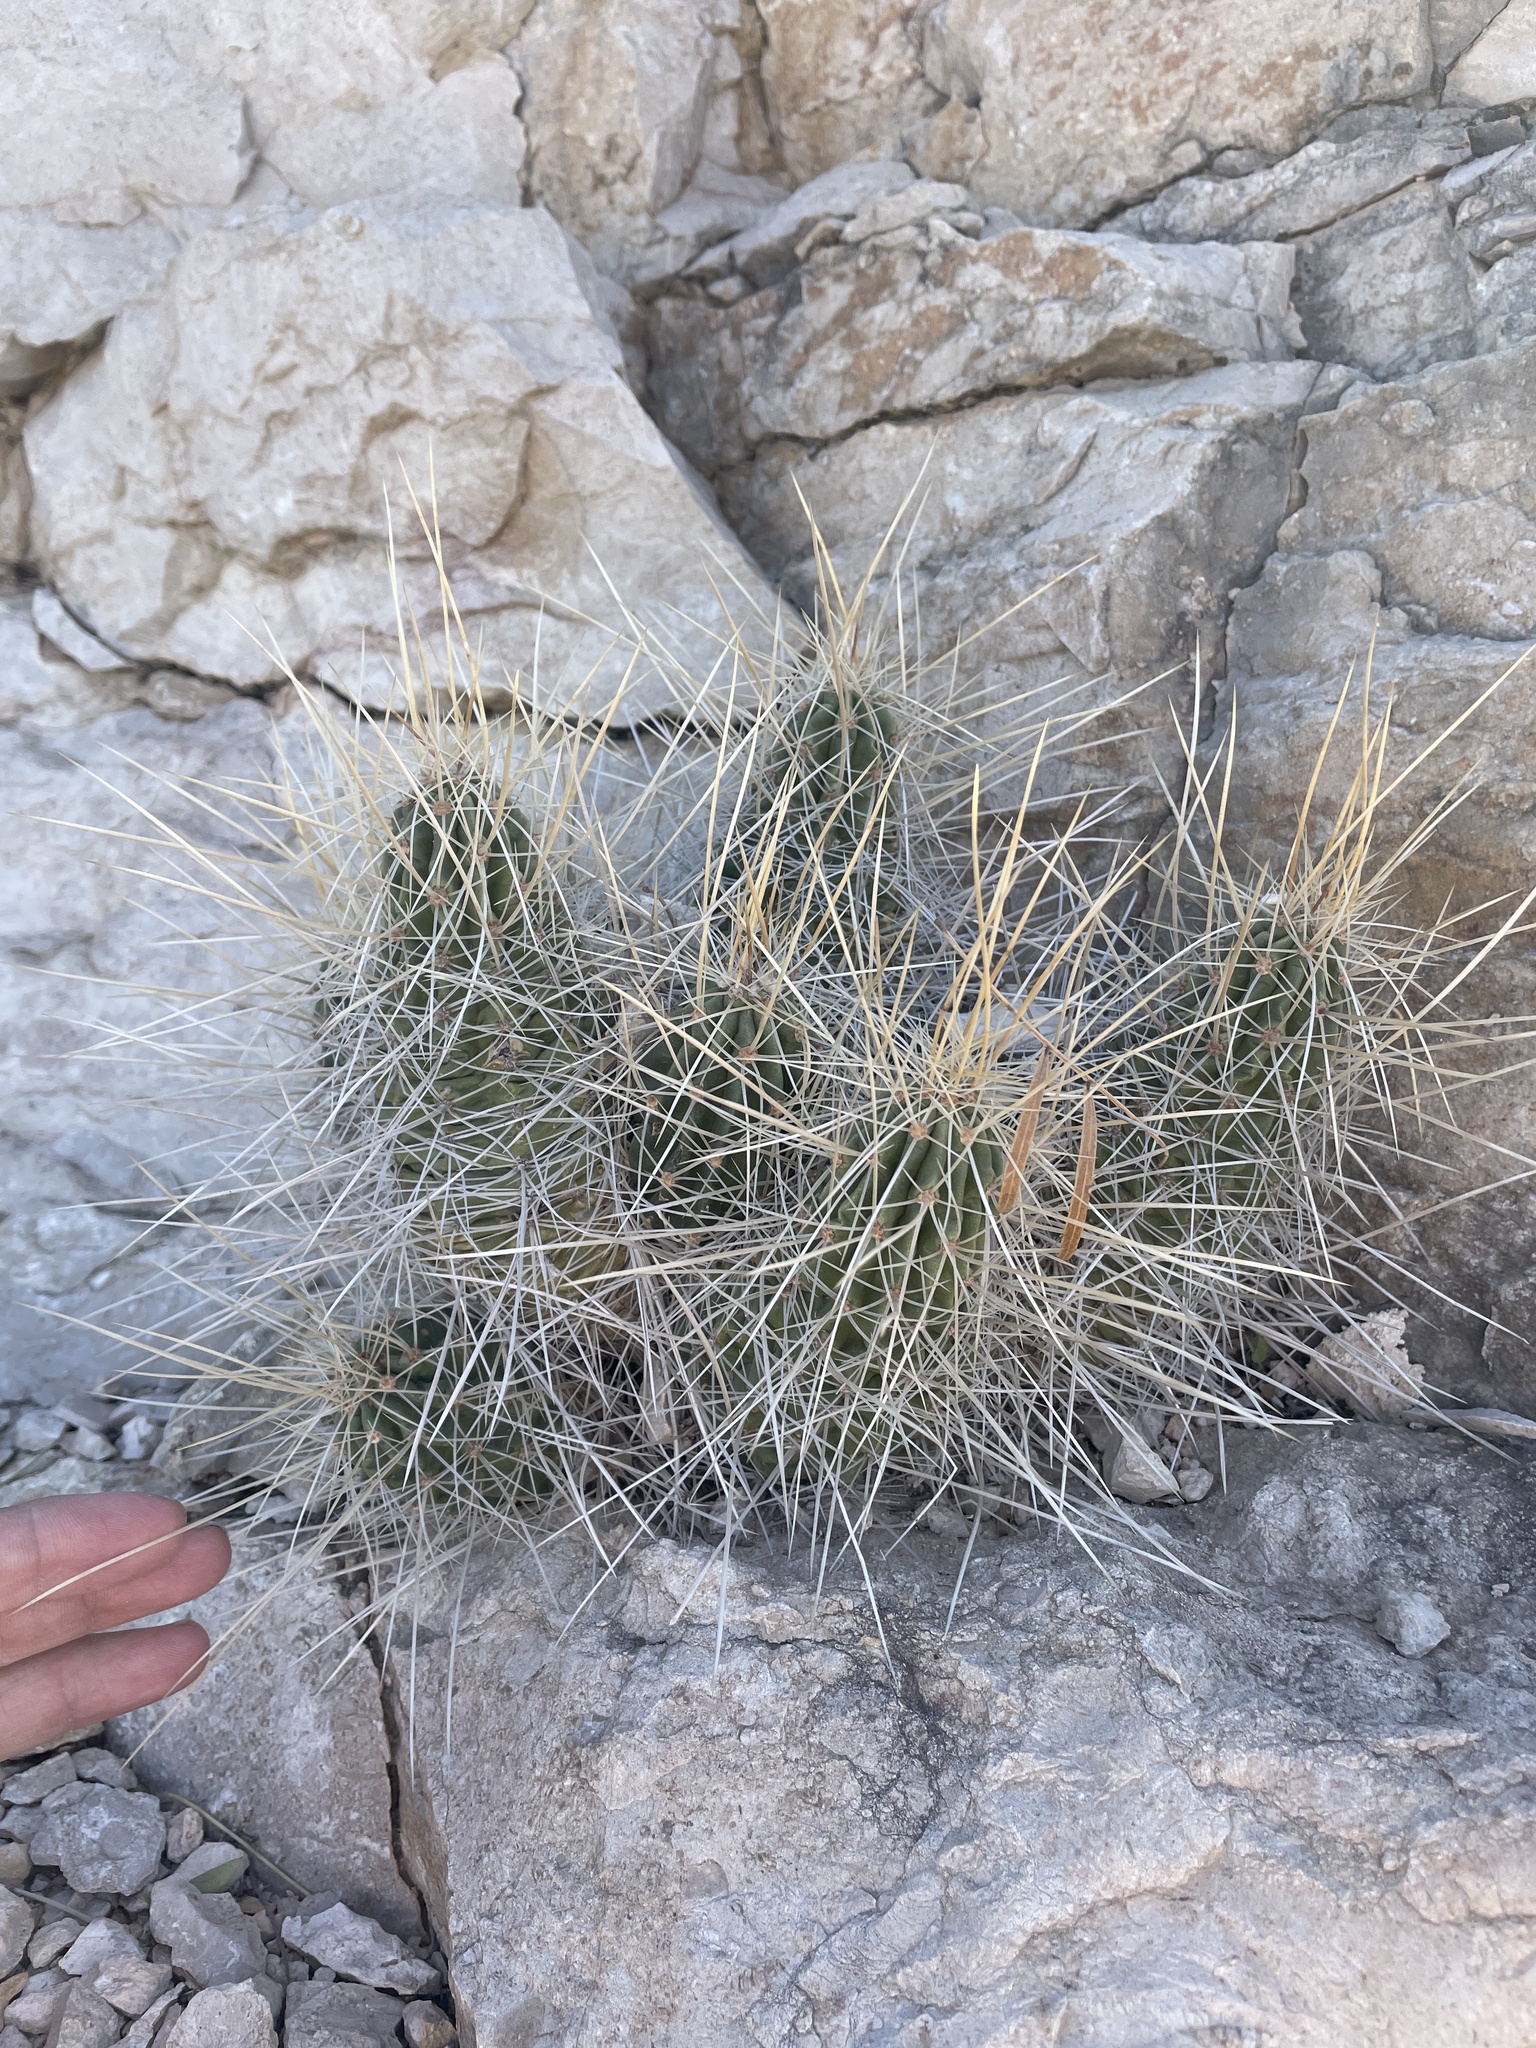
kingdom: Plantae
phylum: Tracheophyta
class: Magnoliopsida
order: Caryophyllales
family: Cactaceae
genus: Echinocereus
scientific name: Echinocereus stramineus
